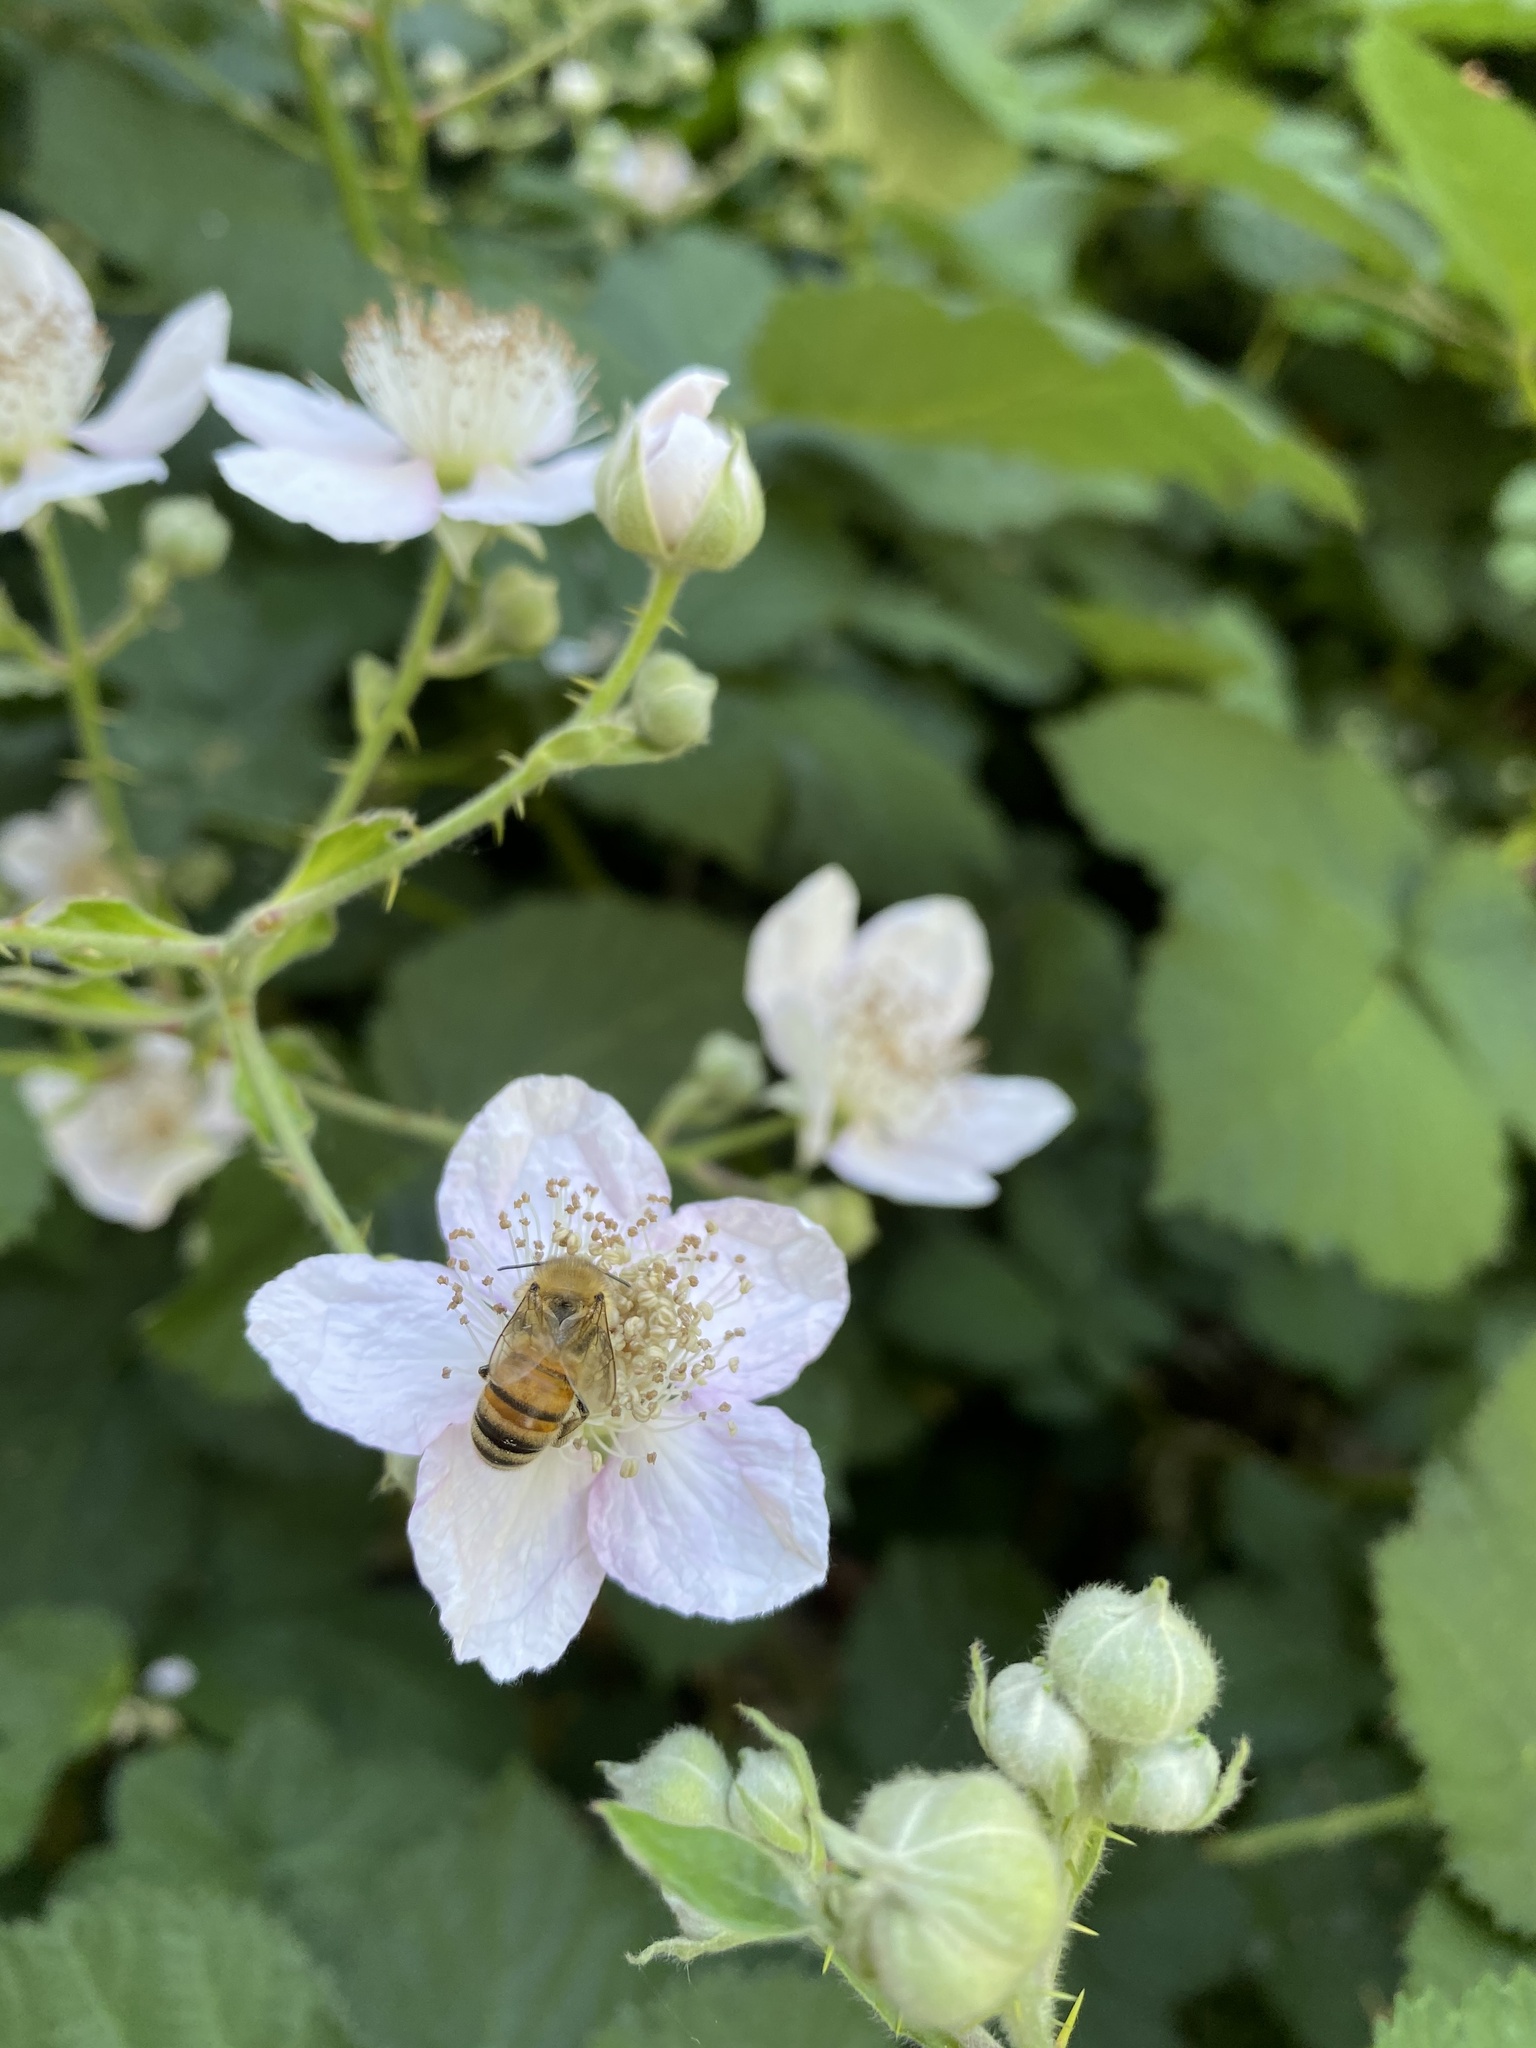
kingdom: Animalia
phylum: Arthropoda
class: Insecta
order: Hymenoptera
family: Apidae
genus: Apis
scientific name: Apis mellifera
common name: Honey bee
